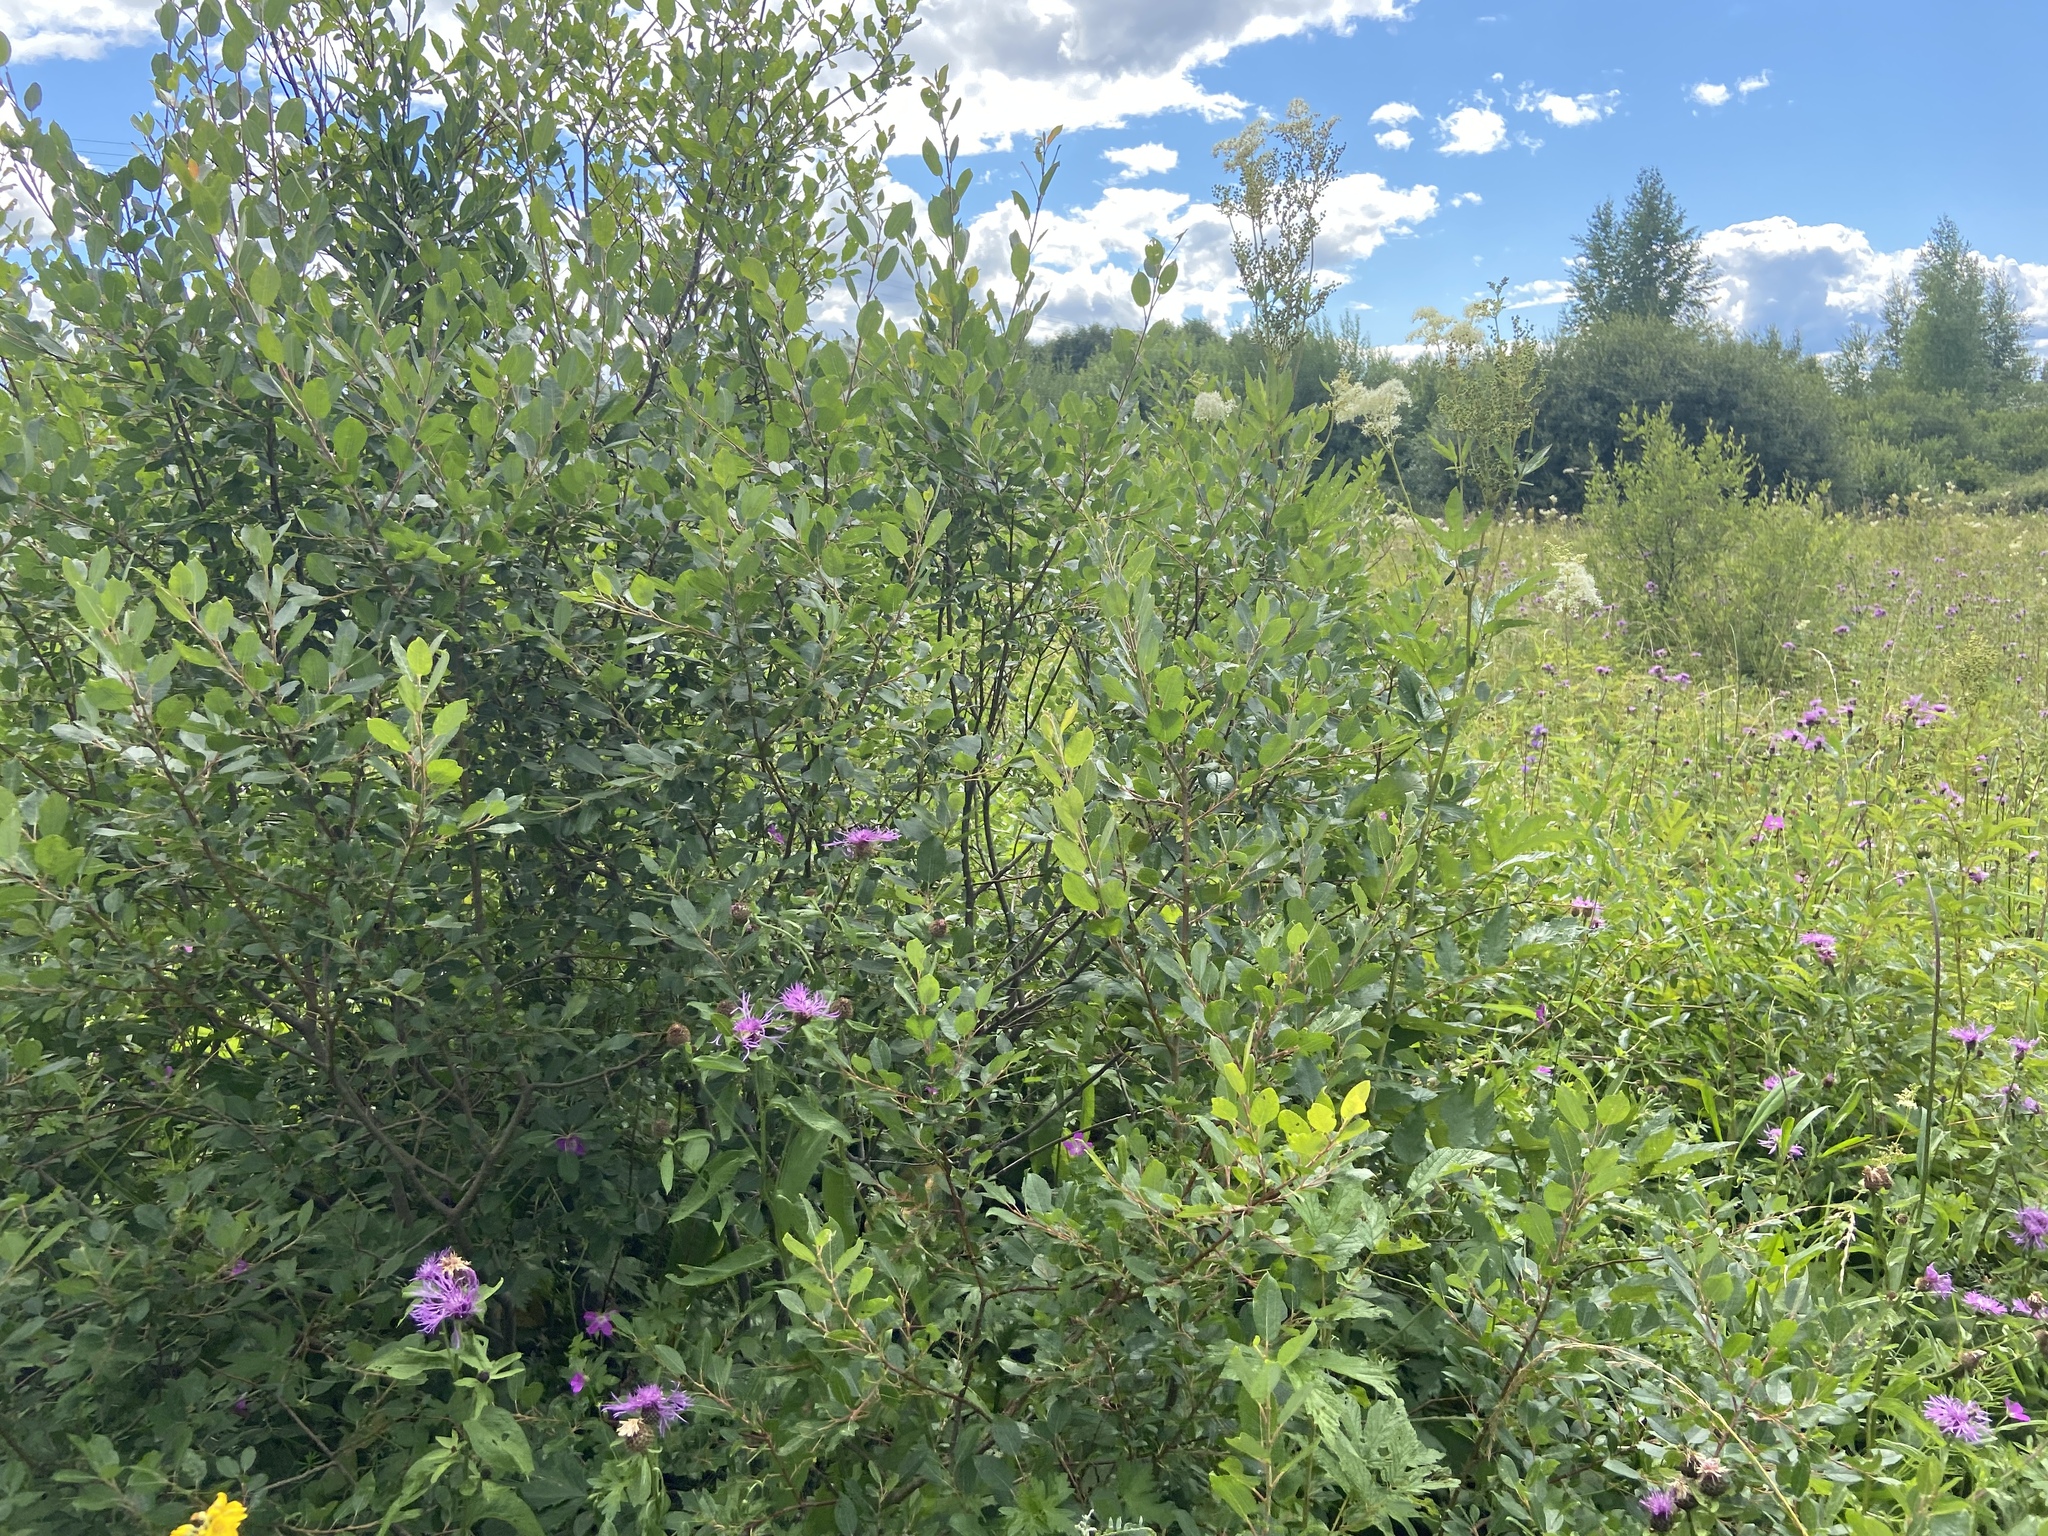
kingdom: Plantae
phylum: Tracheophyta
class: Magnoliopsida
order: Malpighiales
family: Salicaceae
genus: Salix
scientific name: Salix myrsinifolia
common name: Dark-leaved willow
